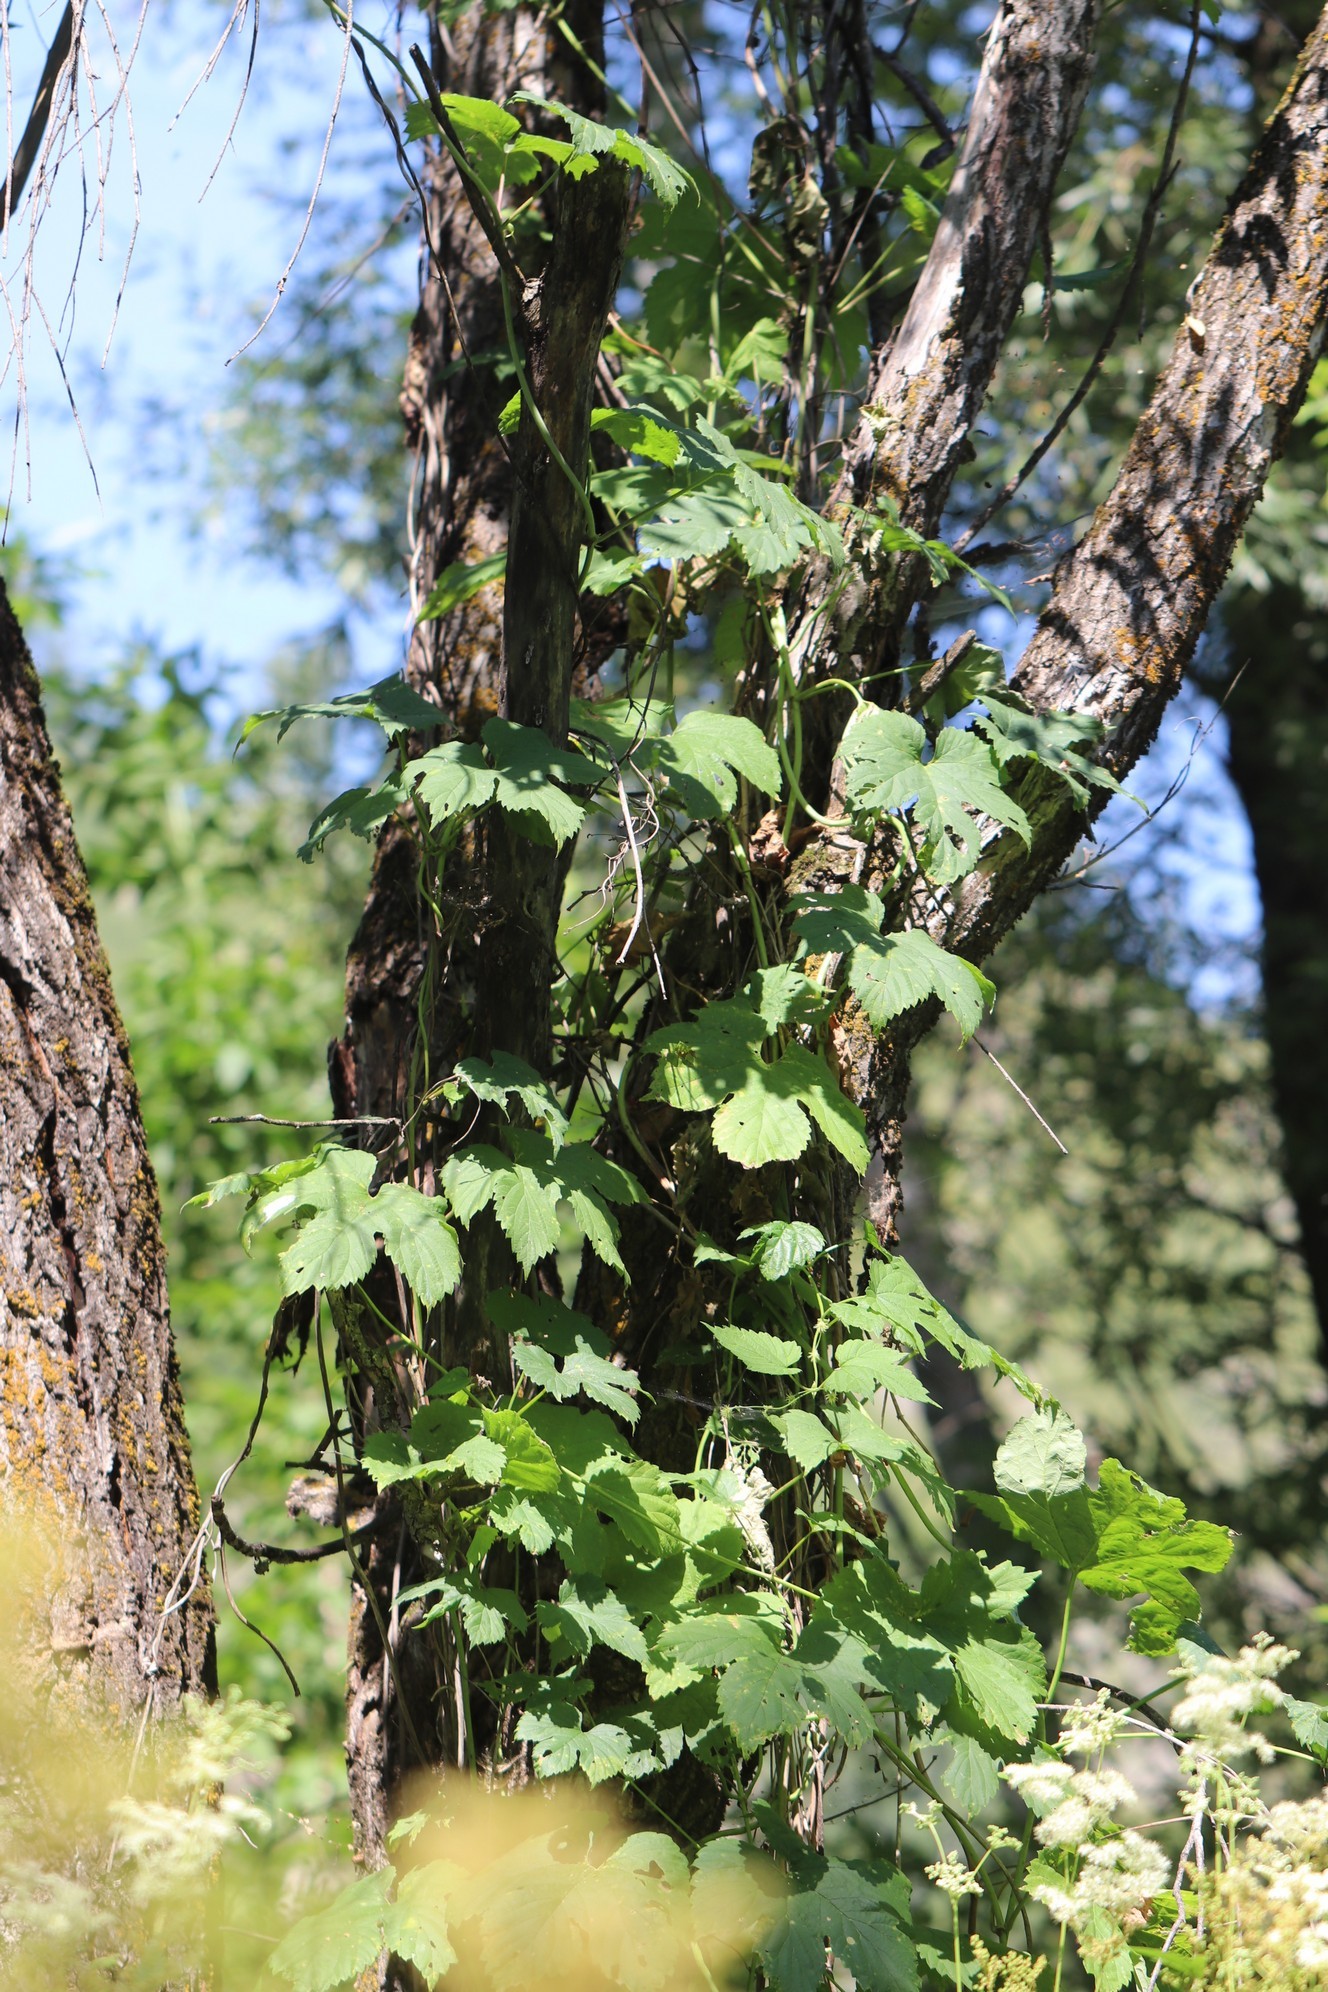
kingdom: Plantae
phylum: Tracheophyta
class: Magnoliopsida
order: Rosales
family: Cannabaceae
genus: Humulus
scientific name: Humulus lupulus
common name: Hop
